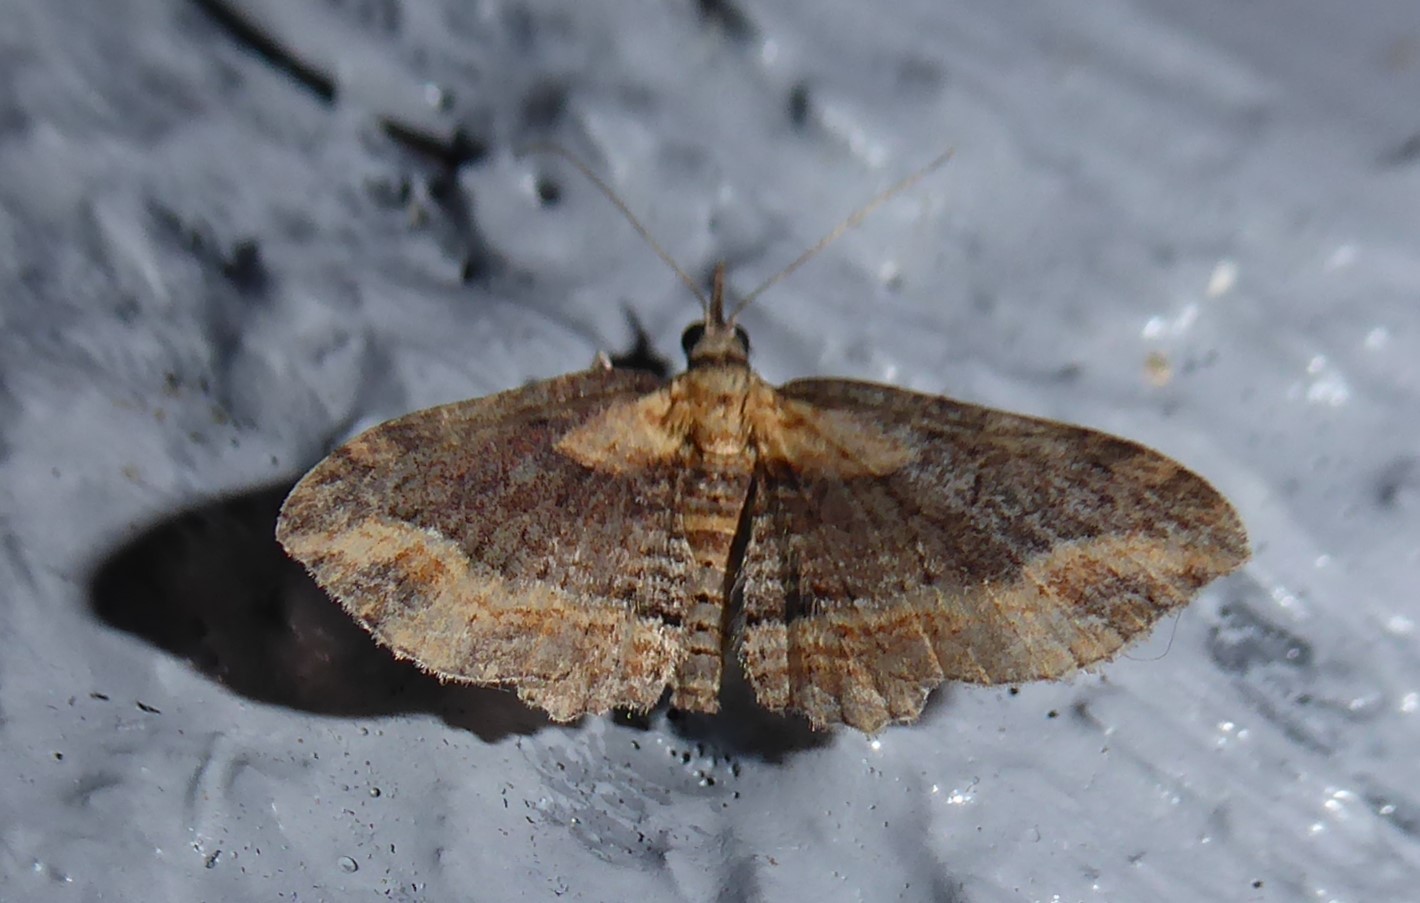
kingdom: Animalia
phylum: Arthropoda
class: Insecta
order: Lepidoptera
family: Geometridae
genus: Chloroclystis
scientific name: Chloroclystis filata
